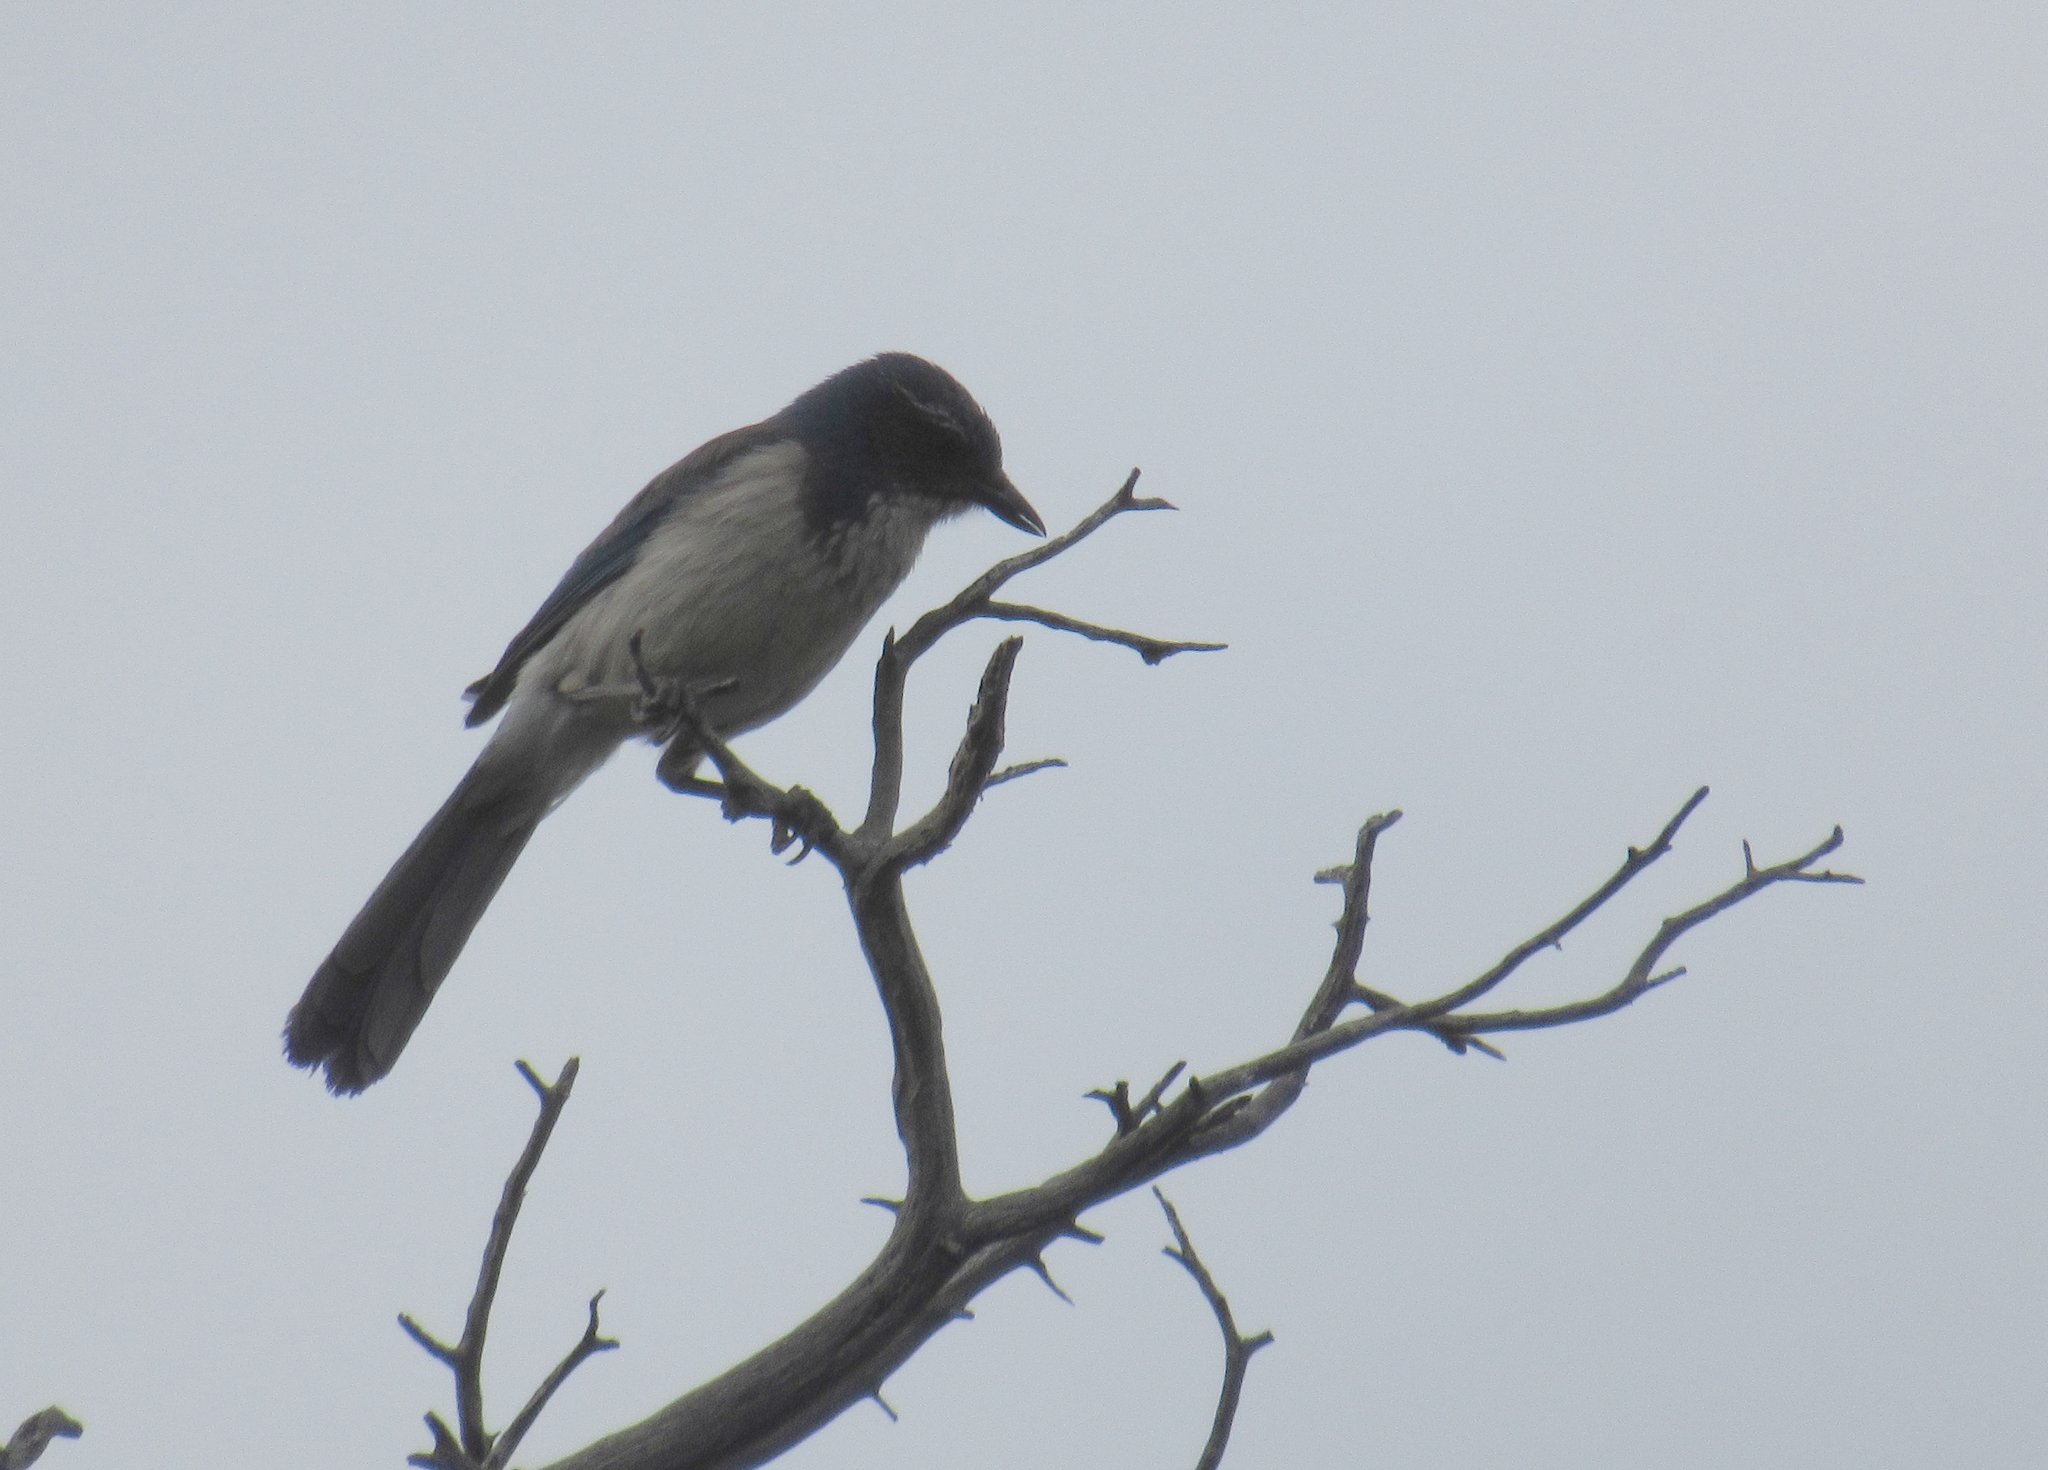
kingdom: Animalia
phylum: Chordata
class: Aves
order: Passeriformes
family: Corvidae
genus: Aphelocoma
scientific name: Aphelocoma californica
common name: California scrub-jay
